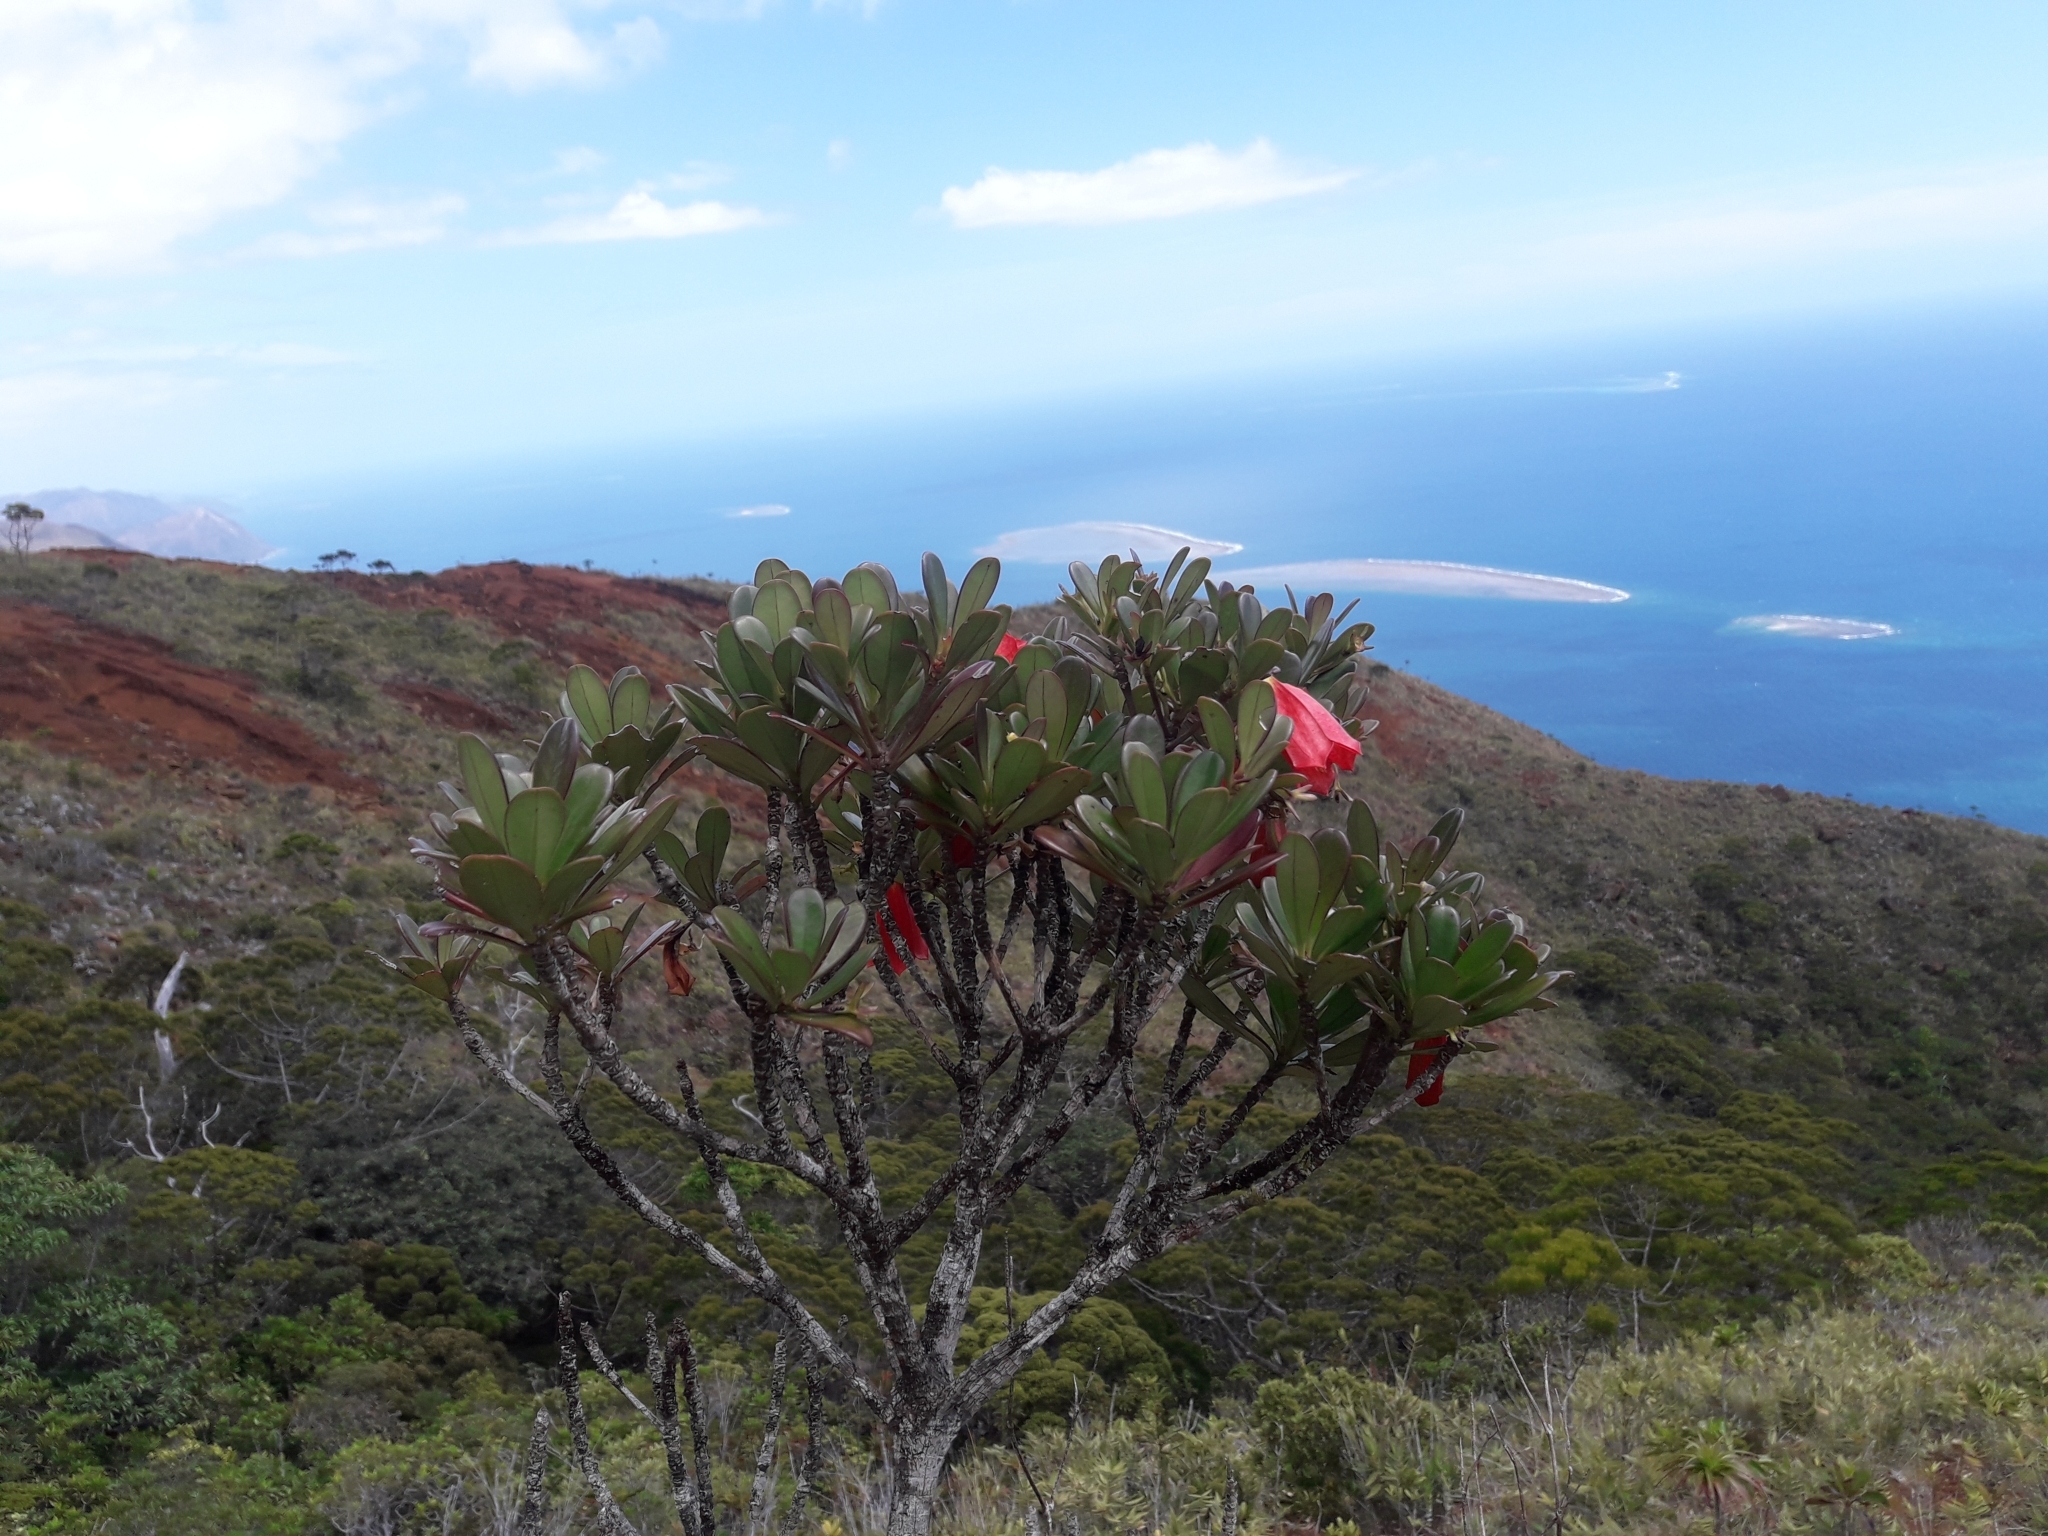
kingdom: Plantae
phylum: Tracheophyta
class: Magnoliopsida
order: Gentianales
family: Rubiaceae
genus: Thiollierea
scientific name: Thiollierea campanulata
